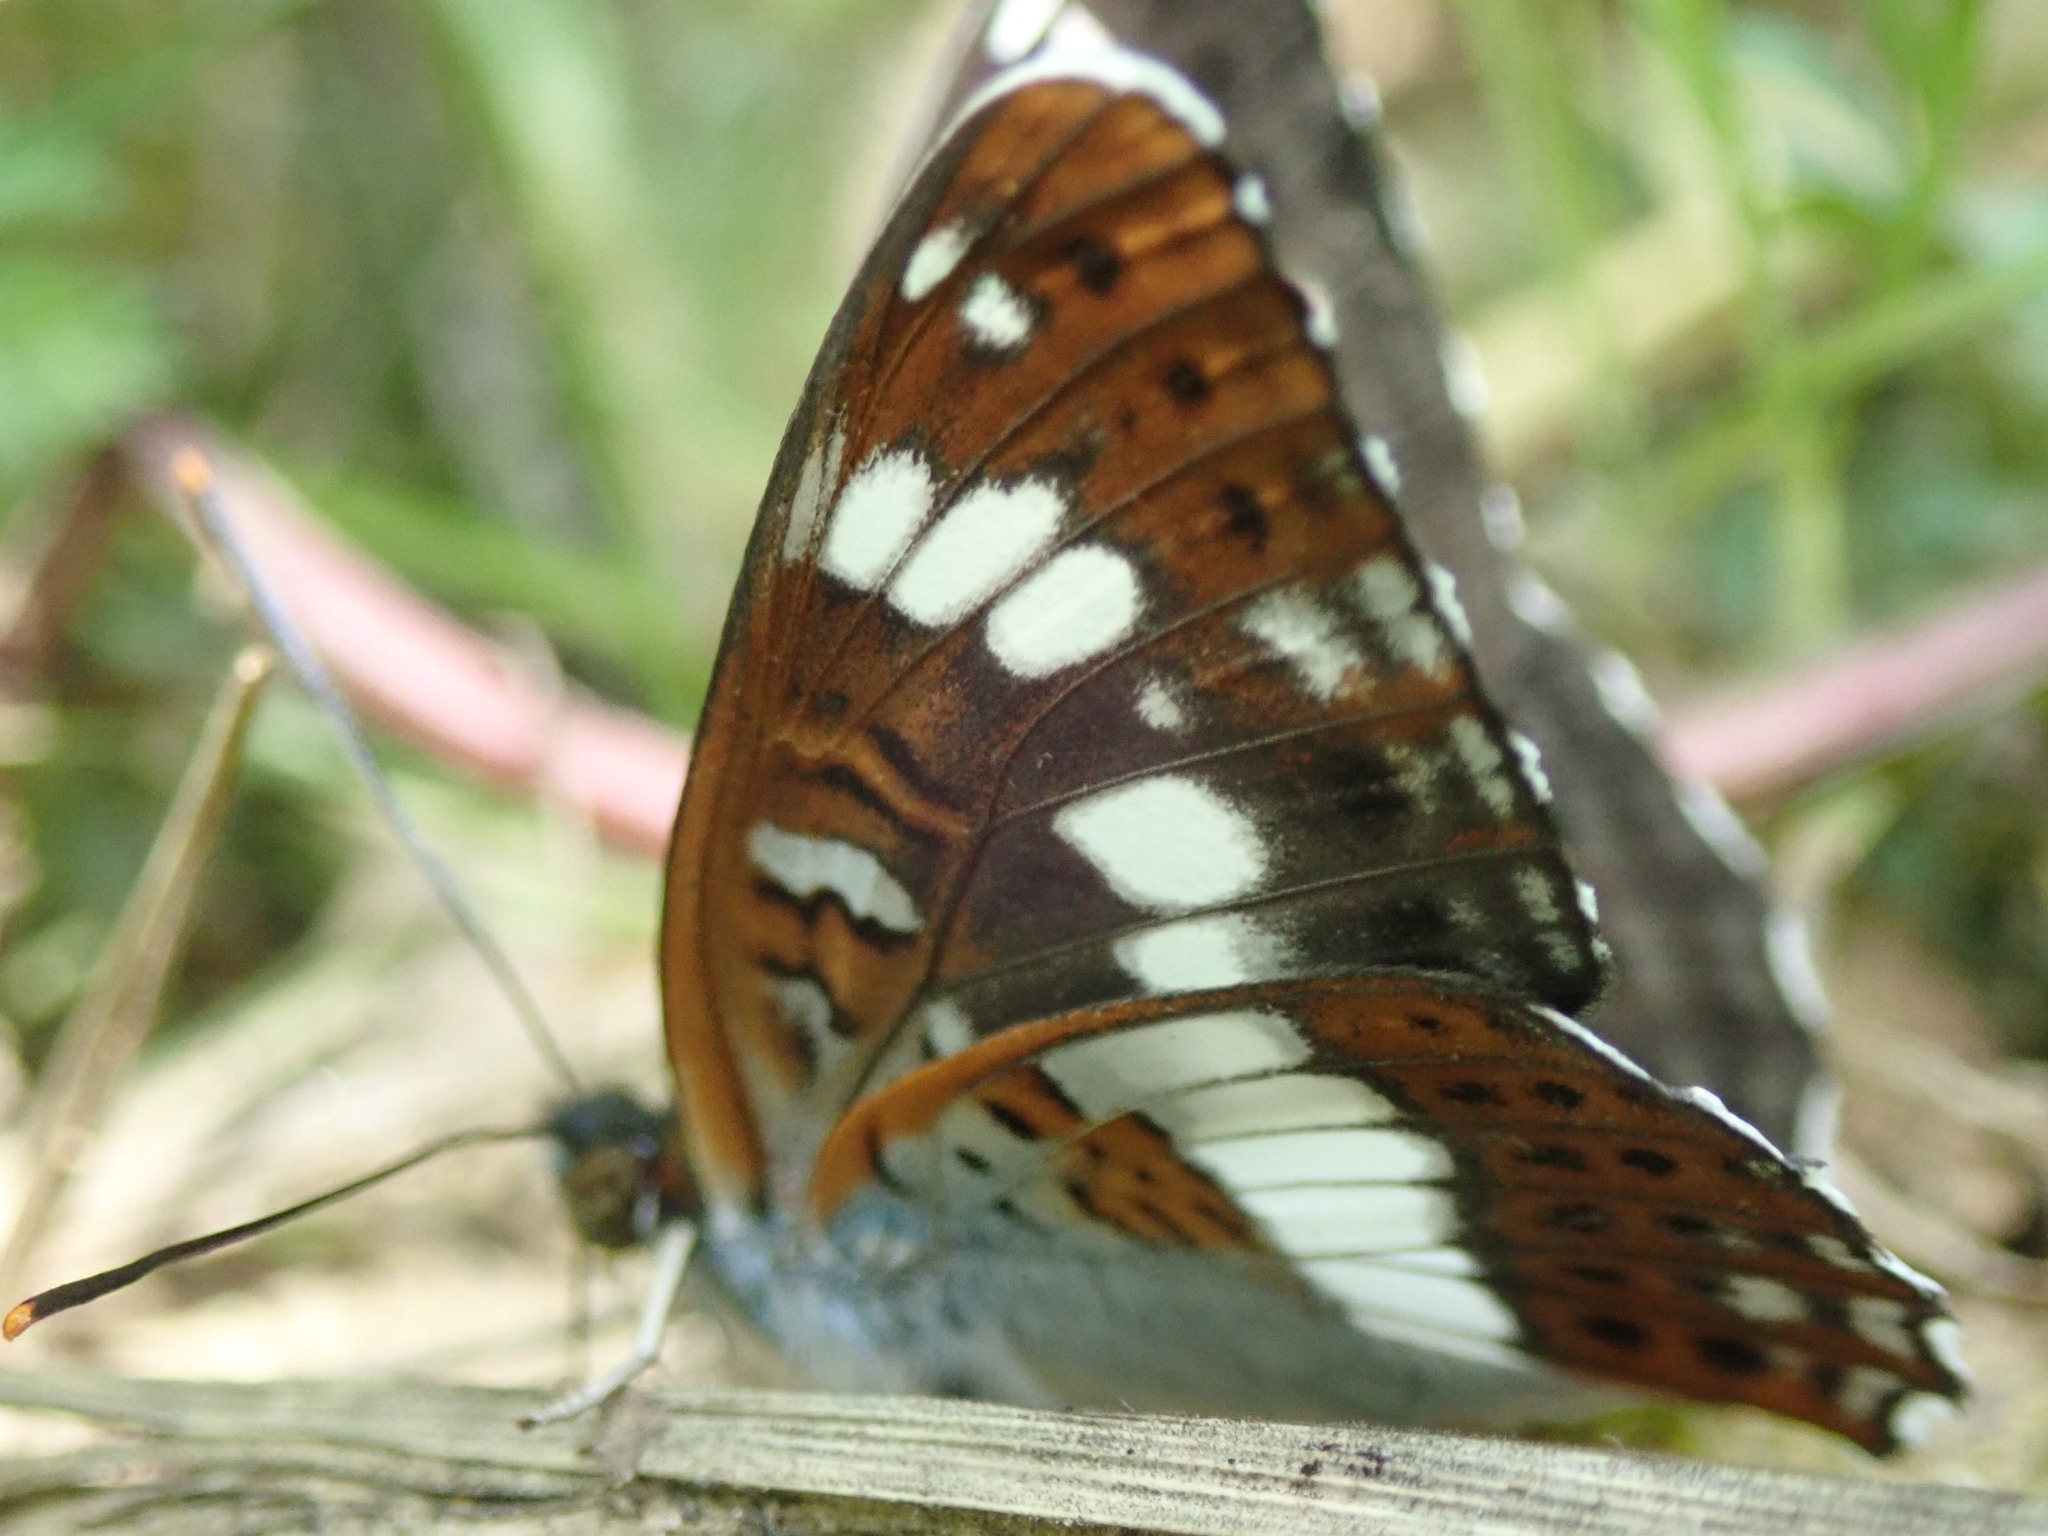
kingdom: Animalia
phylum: Arthropoda
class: Insecta
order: Lepidoptera
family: Nymphalidae
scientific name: Nymphalidae
